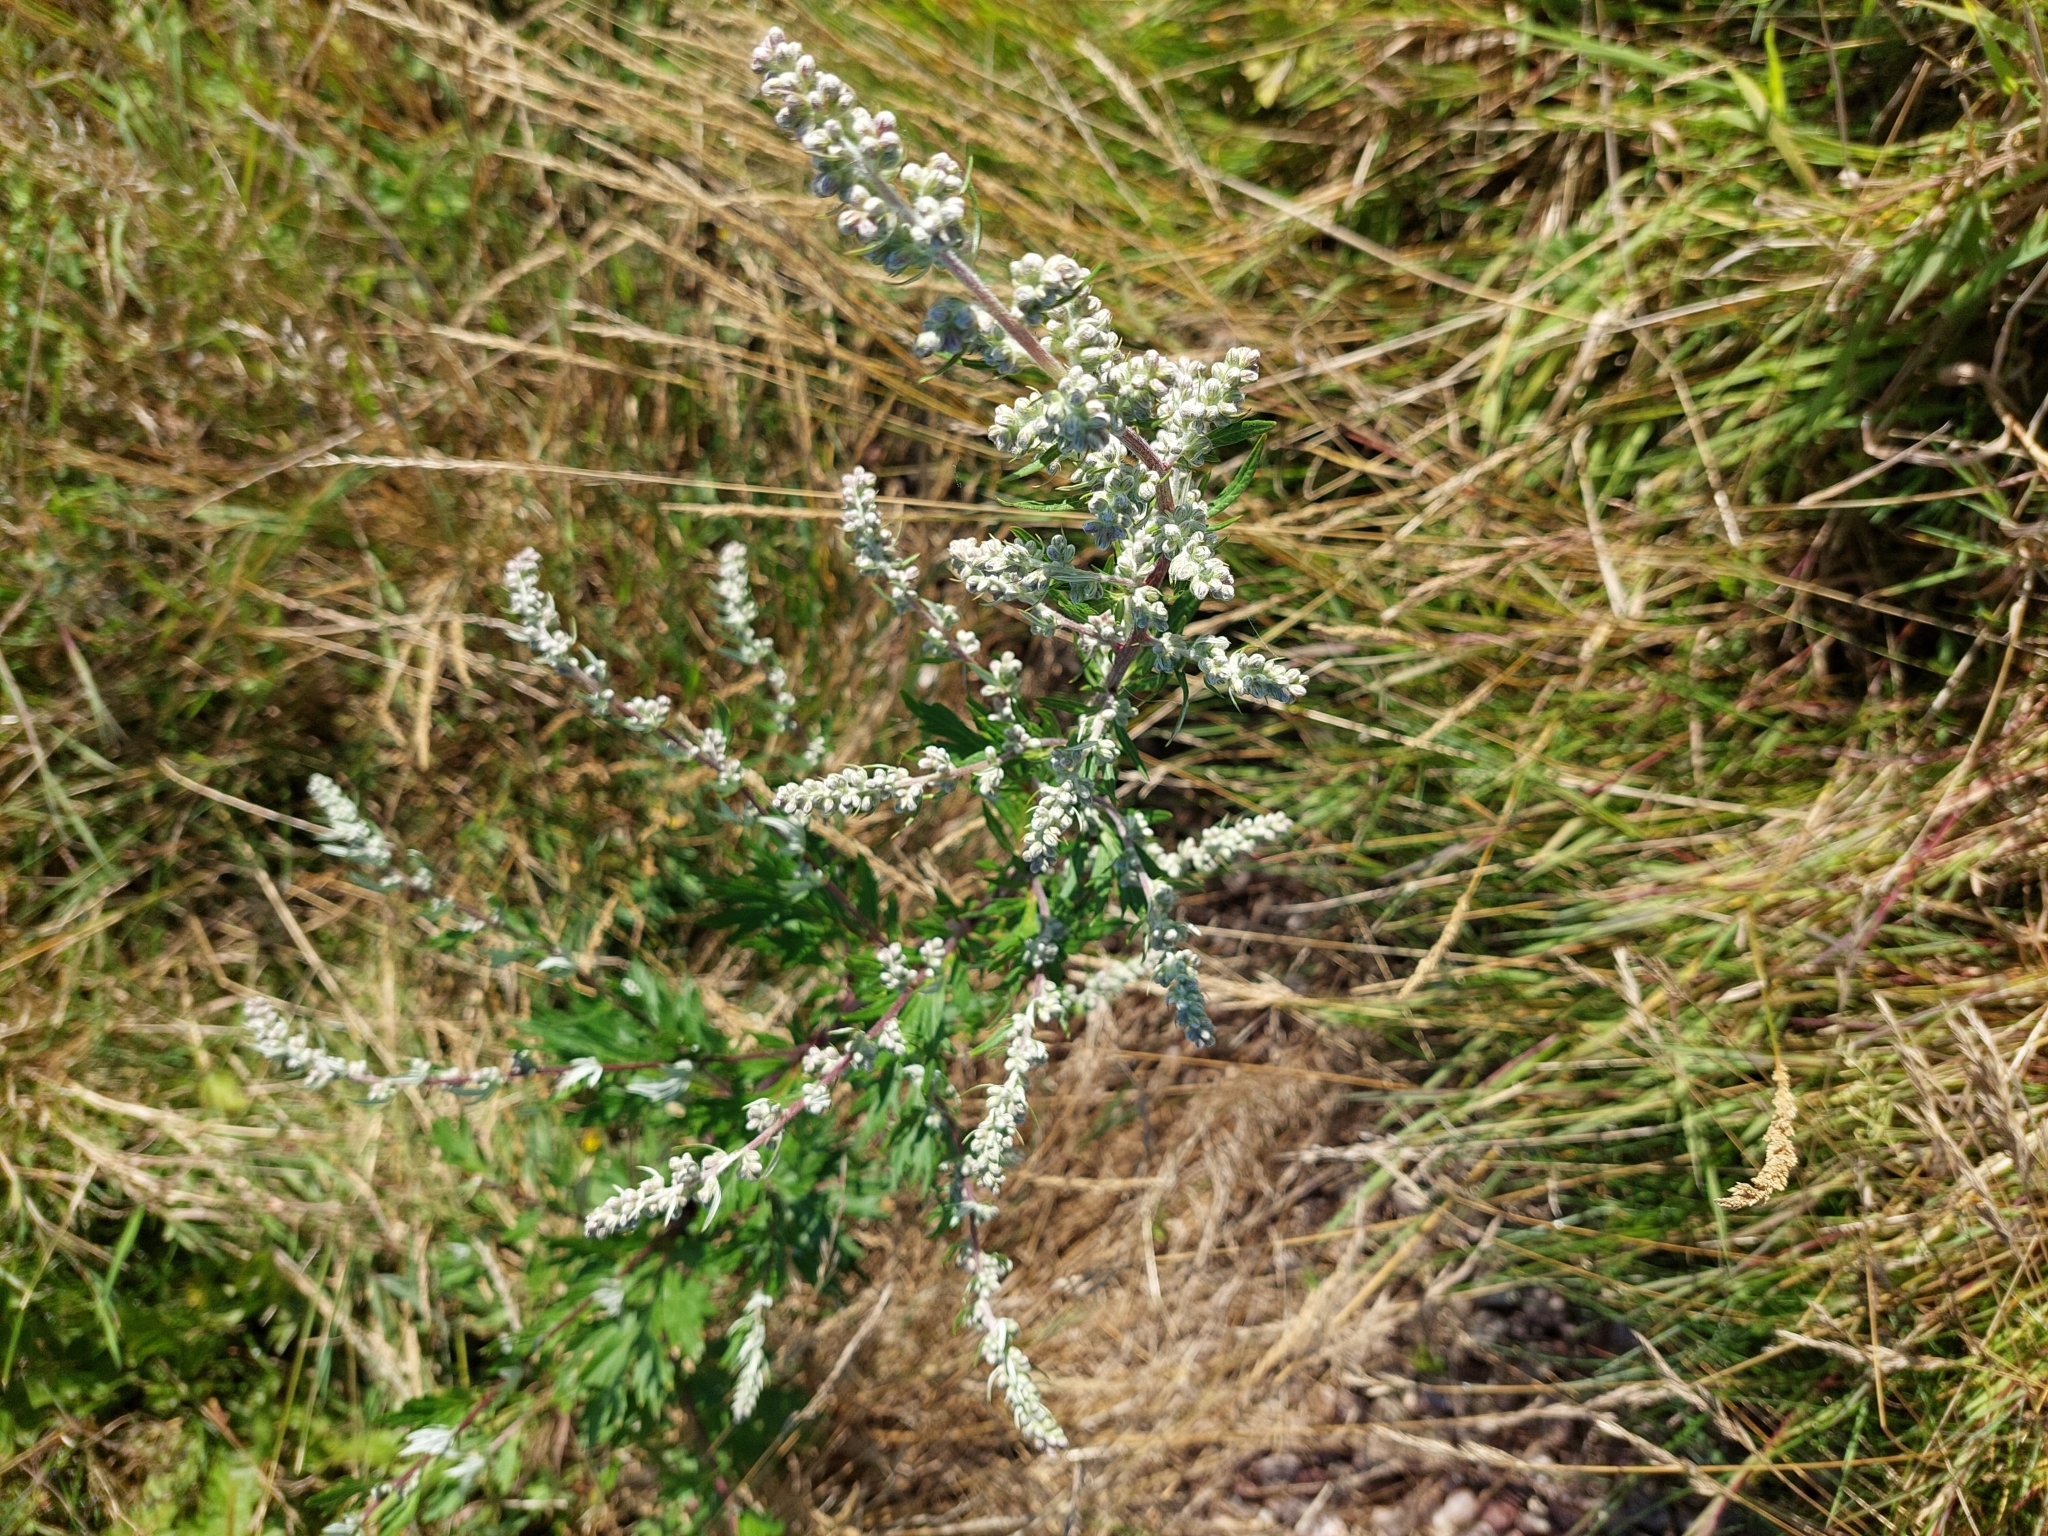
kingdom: Plantae
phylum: Tracheophyta
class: Magnoliopsida
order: Asterales
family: Asteraceae
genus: Artemisia
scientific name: Artemisia vulgaris
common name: Mugwort
